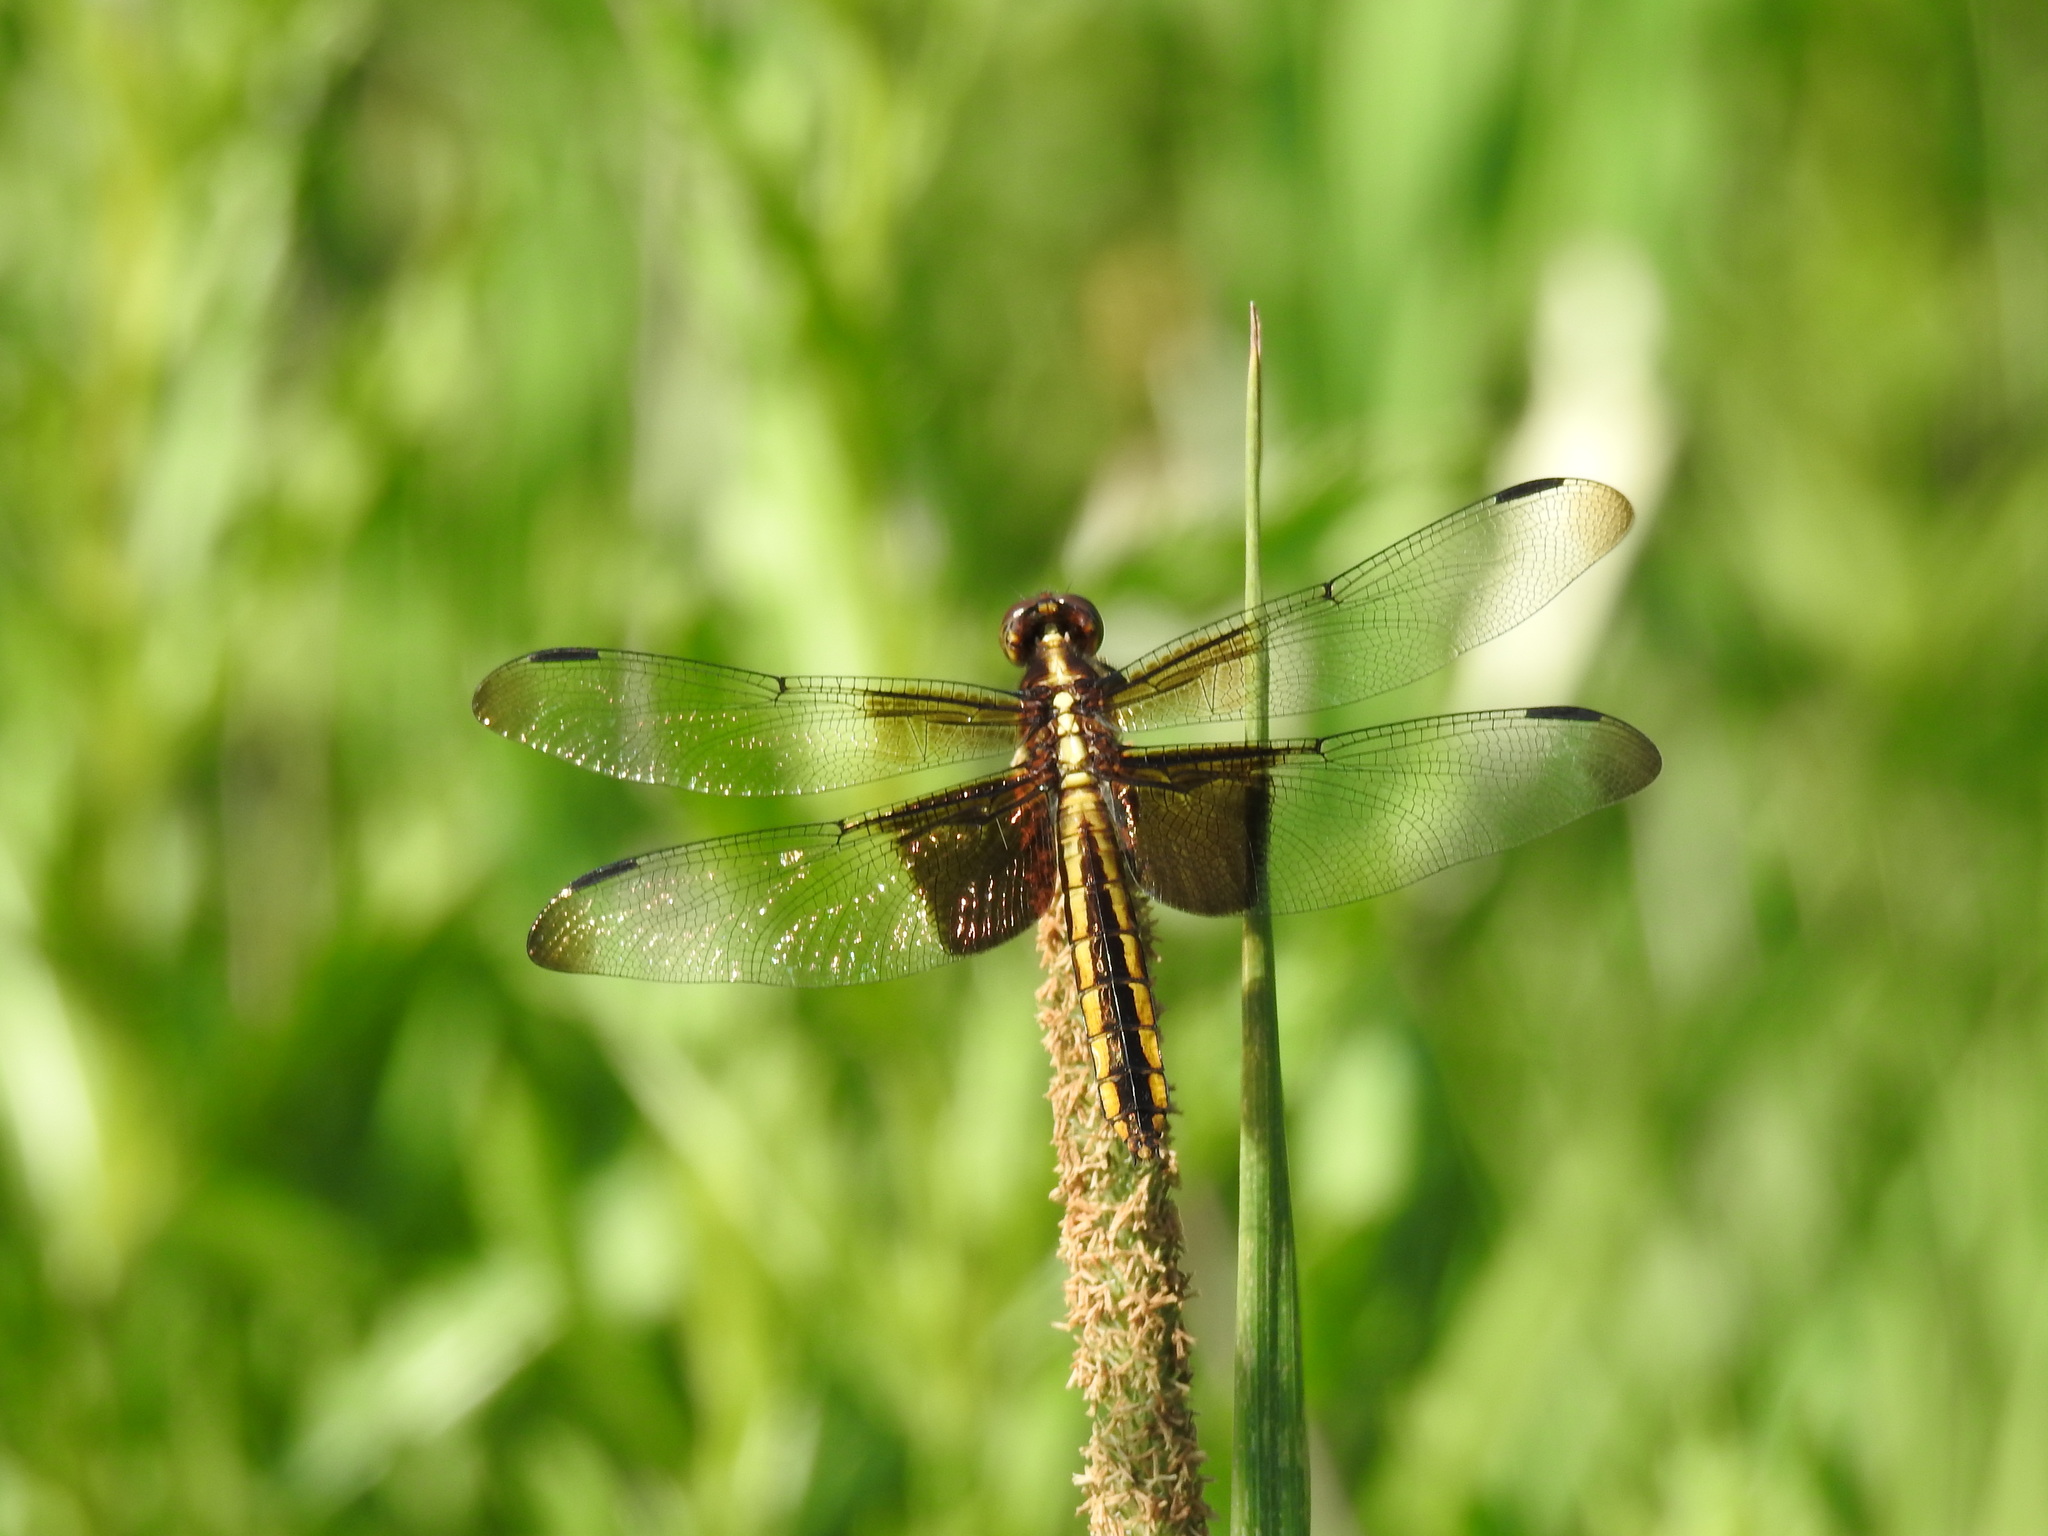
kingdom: Animalia
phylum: Arthropoda
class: Insecta
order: Odonata
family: Libellulidae
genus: Libellula
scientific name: Libellula luctuosa
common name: Widow skimmer
